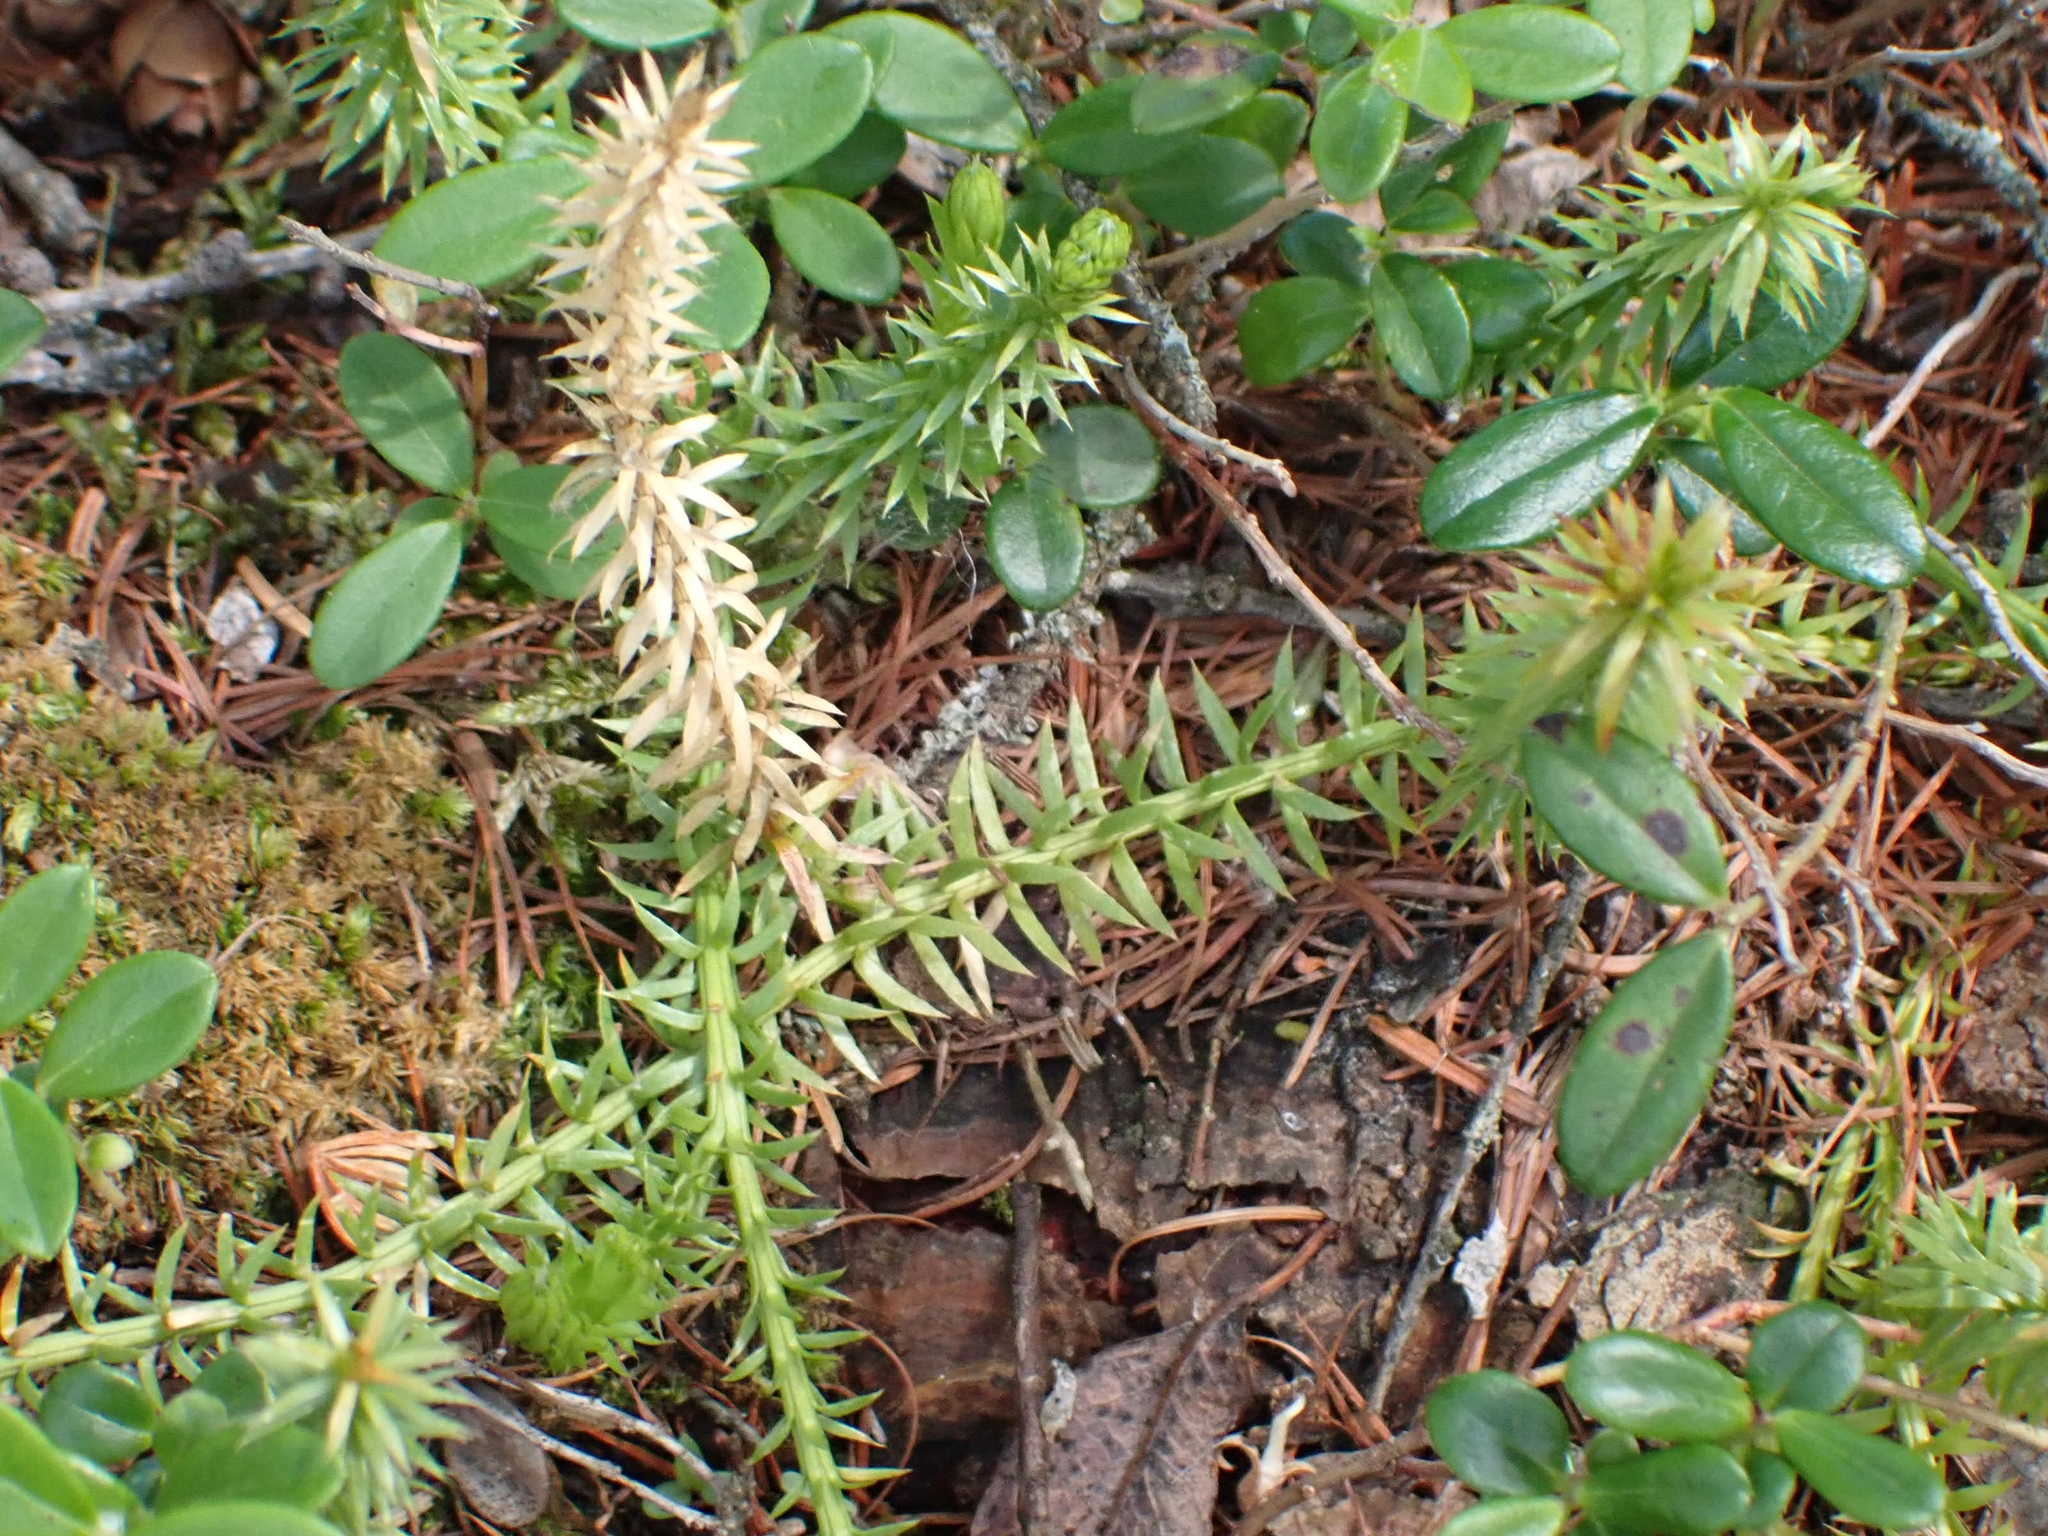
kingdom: Plantae
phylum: Tracheophyta
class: Lycopodiopsida
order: Lycopodiales
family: Lycopodiaceae
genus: Spinulum
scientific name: Spinulum annotinum
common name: Interrupted club-moss
